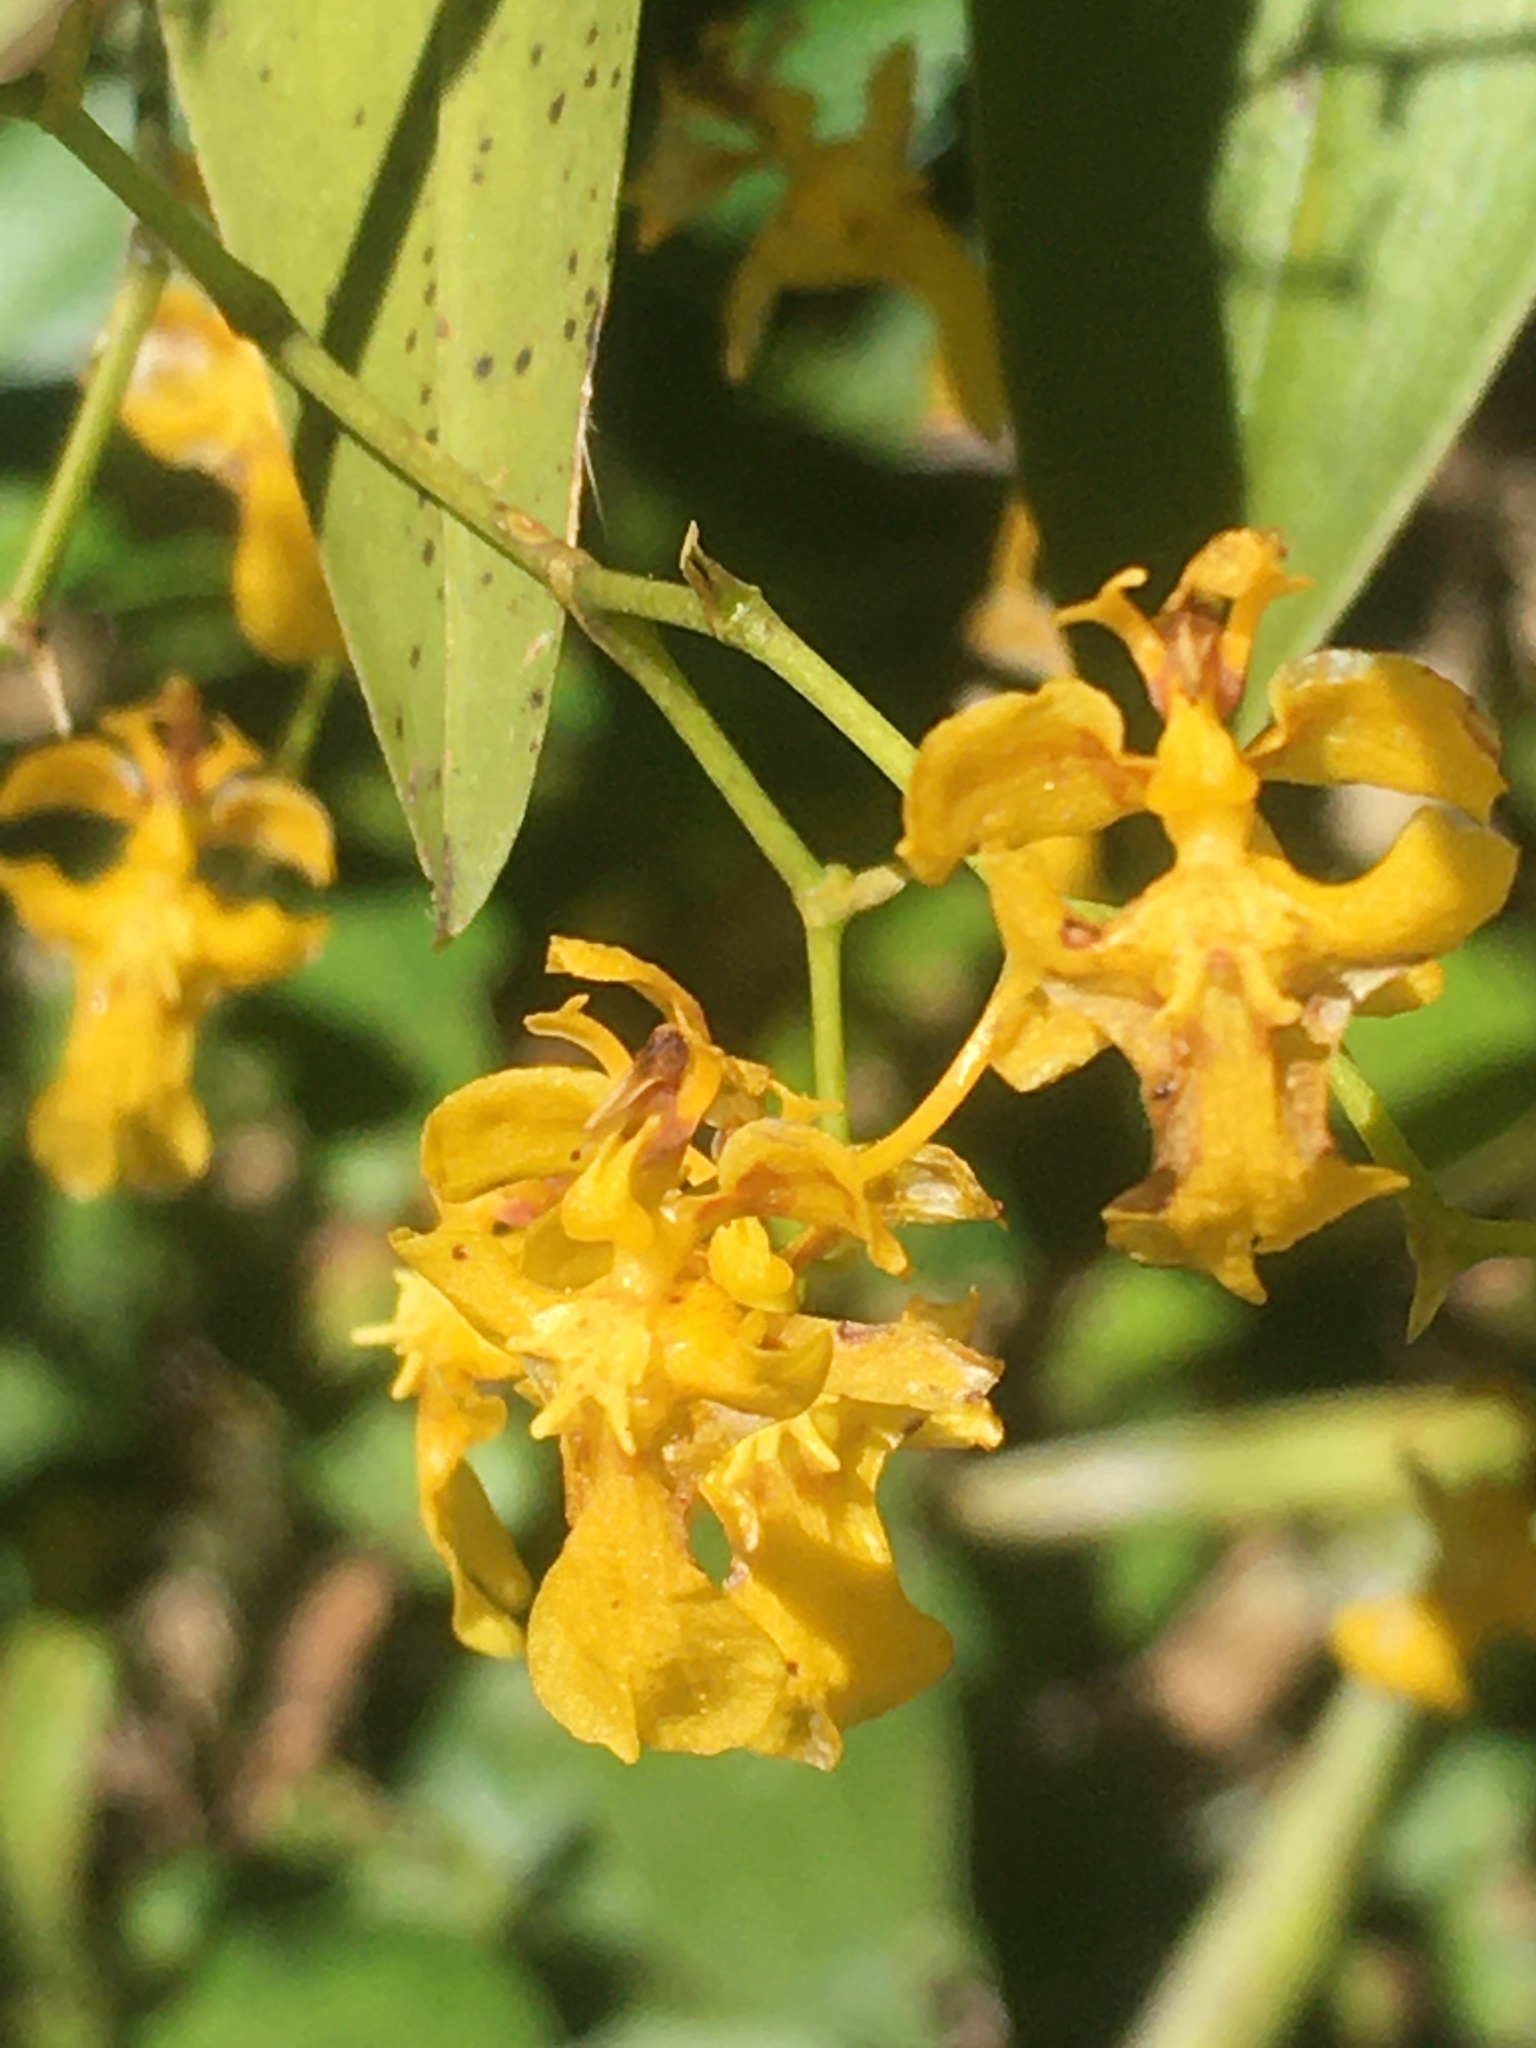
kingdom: Plantae
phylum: Tracheophyta
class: Liliopsida
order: Asparagales
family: Orchidaceae
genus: Oncidium
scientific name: Oncidium ornithorhynchum
